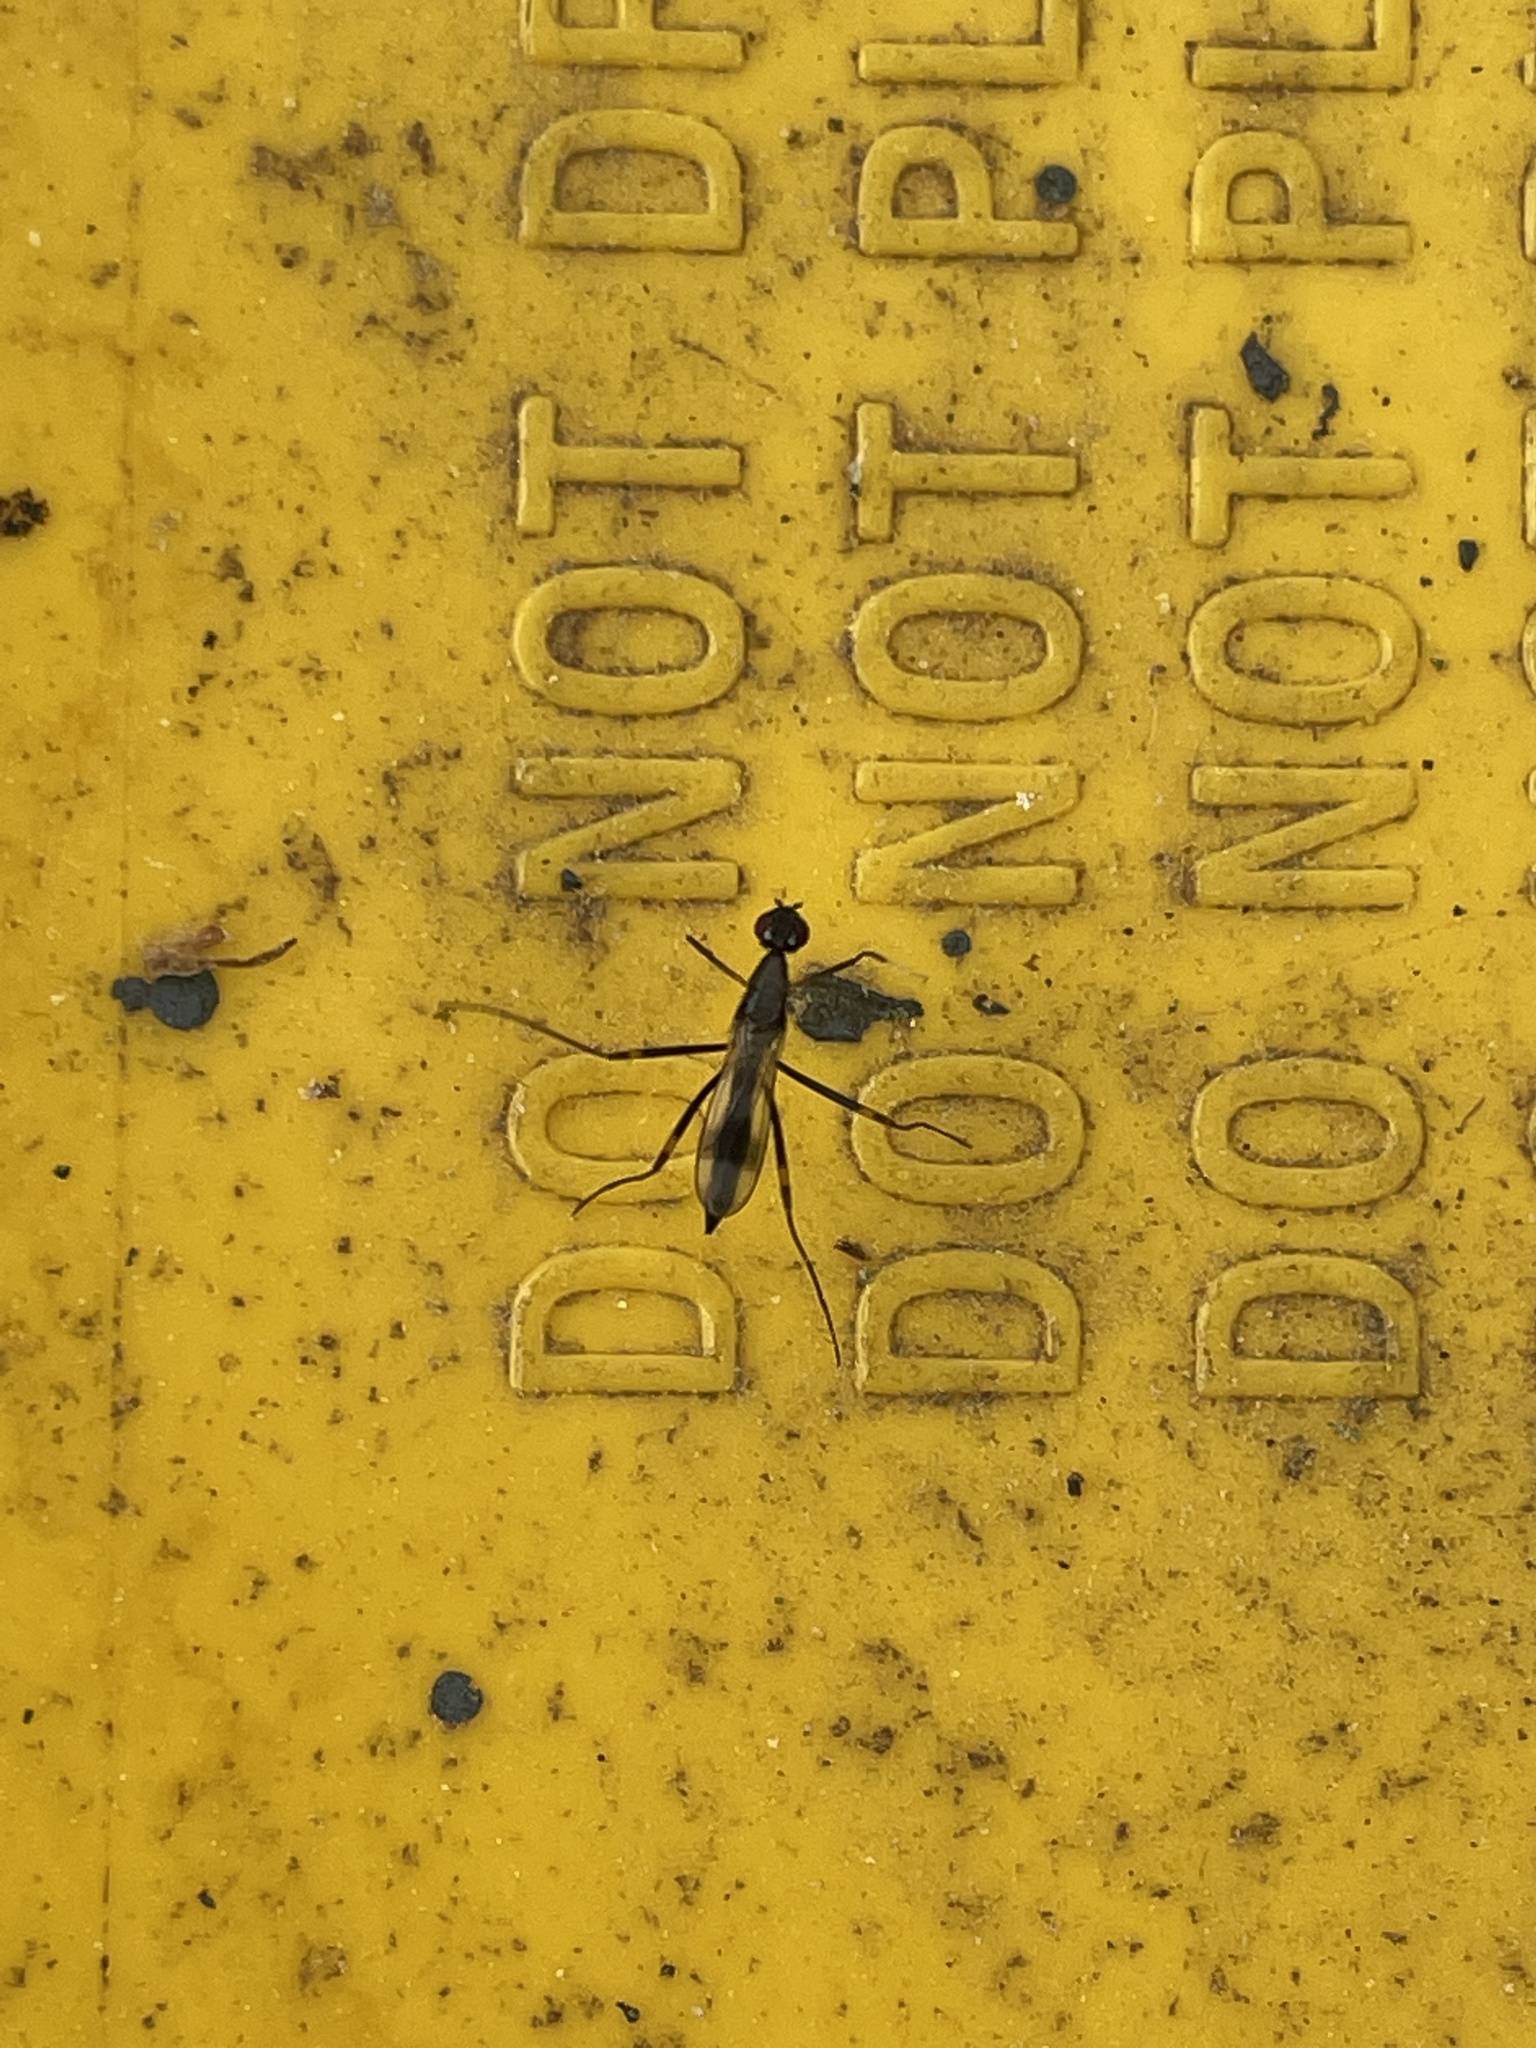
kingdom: Animalia
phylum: Arthropoda
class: Insecta
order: Diptera
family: Micropezidae
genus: Rainieria
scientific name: Rainieria antennaepes
